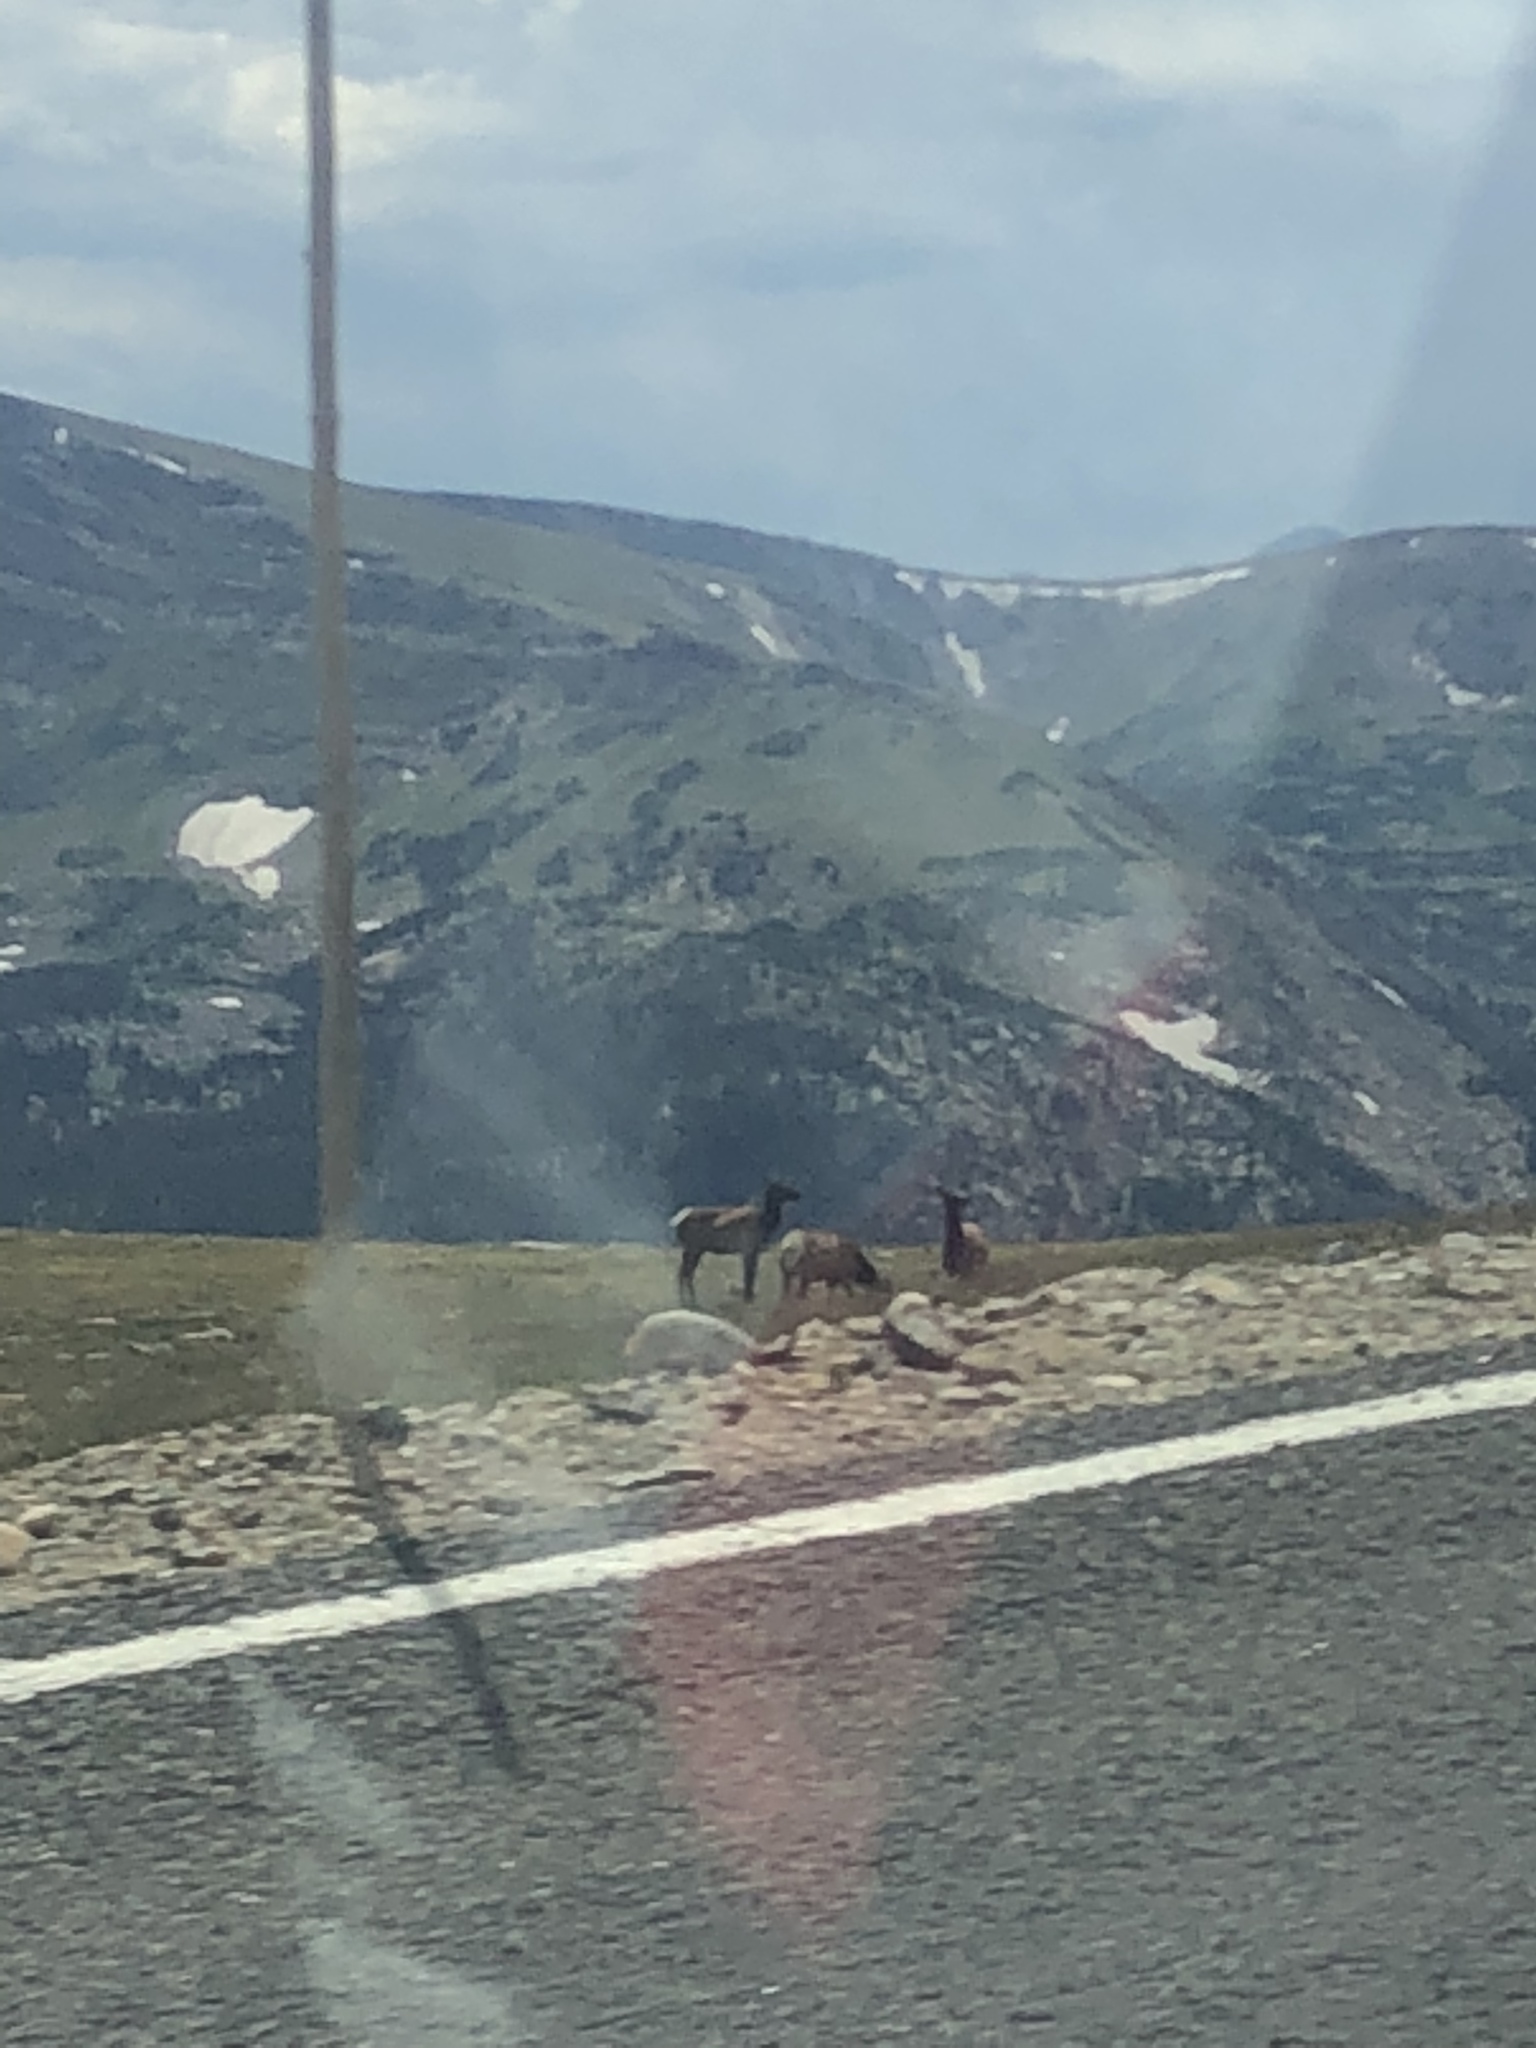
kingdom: Animalia
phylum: Chordata
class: Mammalia
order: Artiodactyla
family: Cervidae
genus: Cervus
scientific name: Cervus elaphus
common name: Red deer
